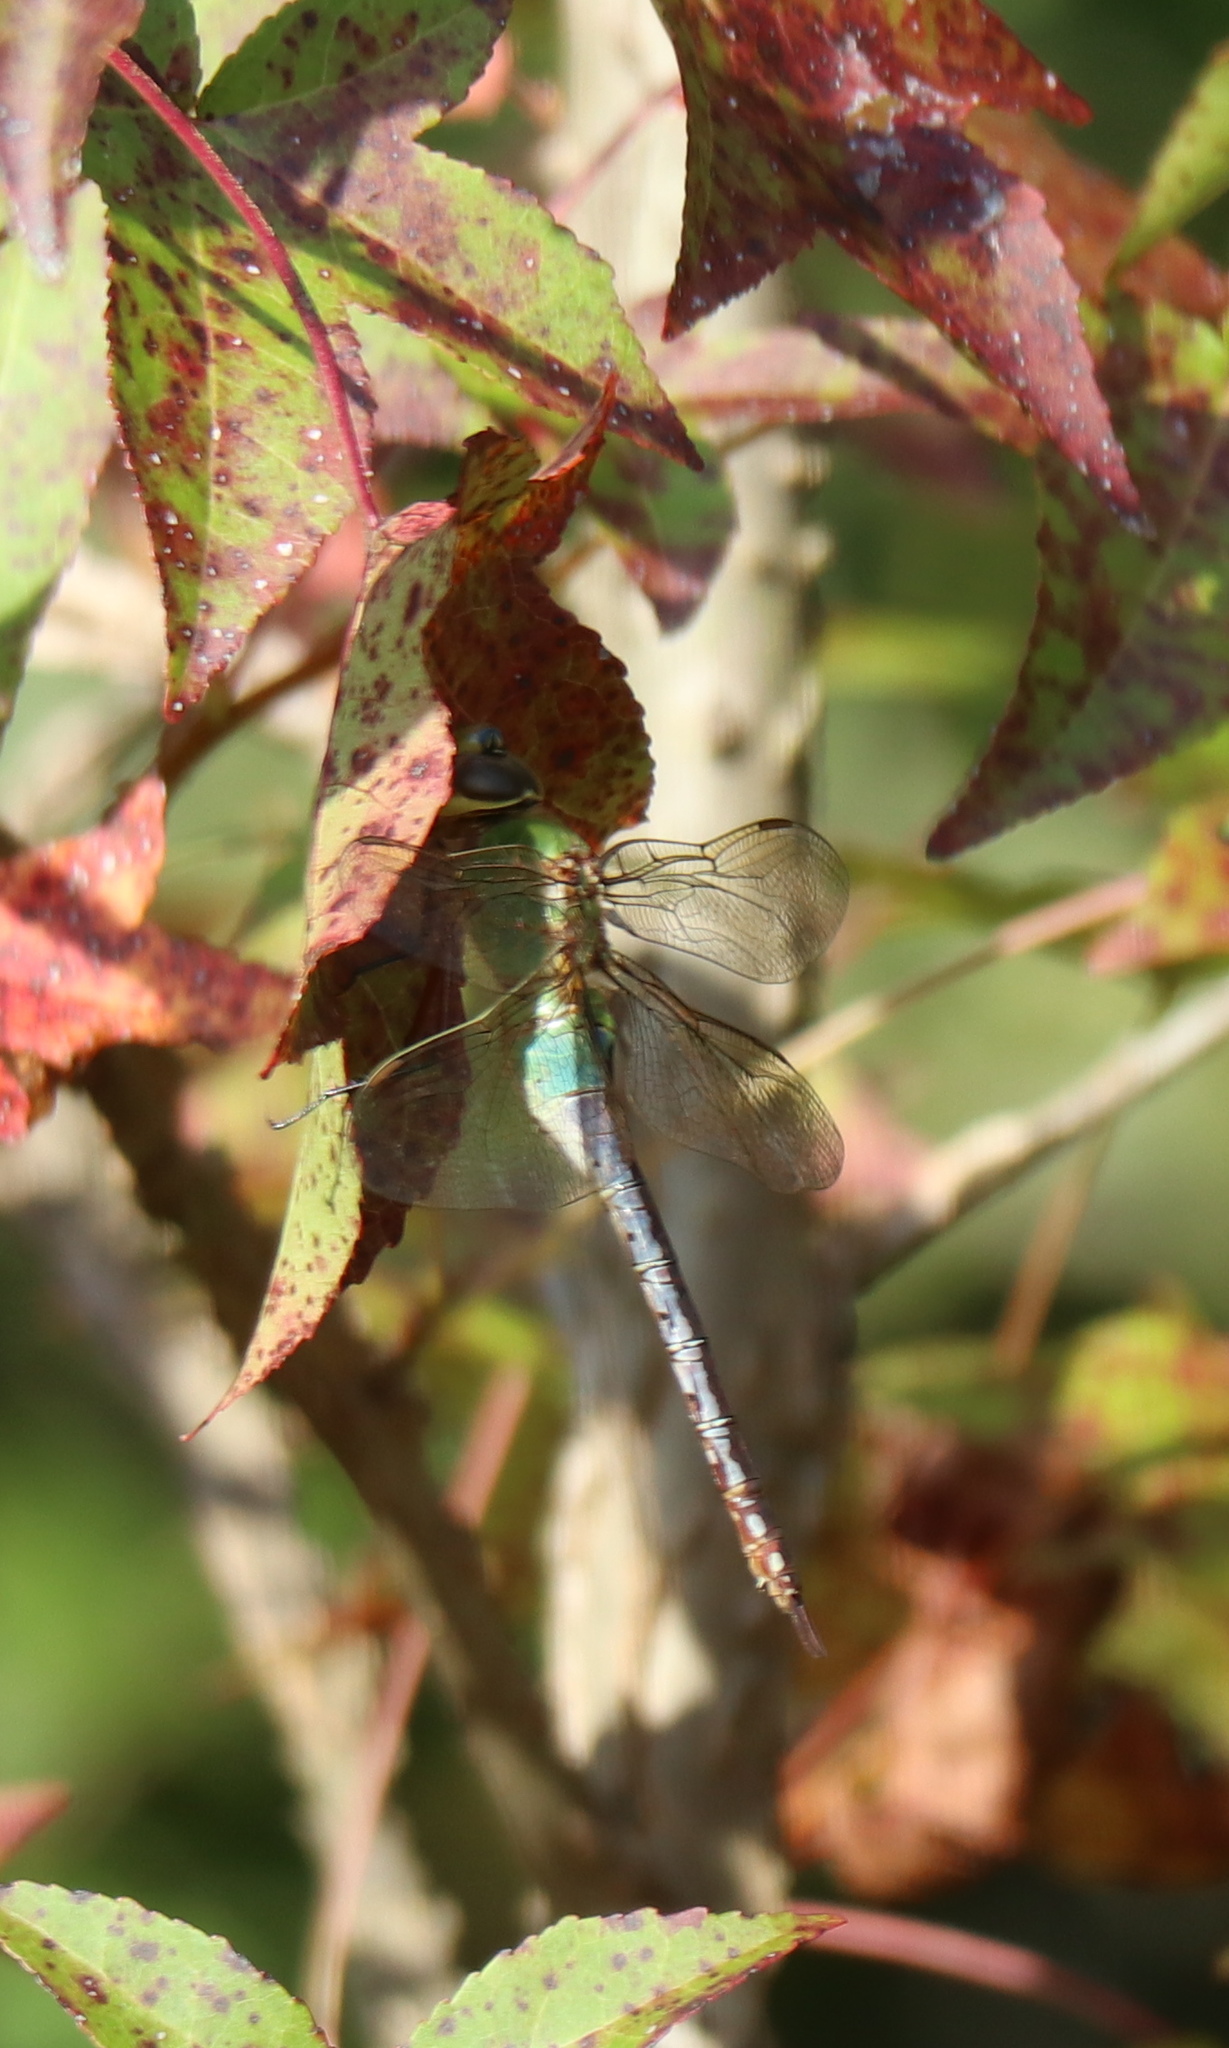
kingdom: Animalia
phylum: Arthropoda
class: Insecta
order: Odonata
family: Aeshnidae
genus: Anax
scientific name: Anax junius
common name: Common green darner
